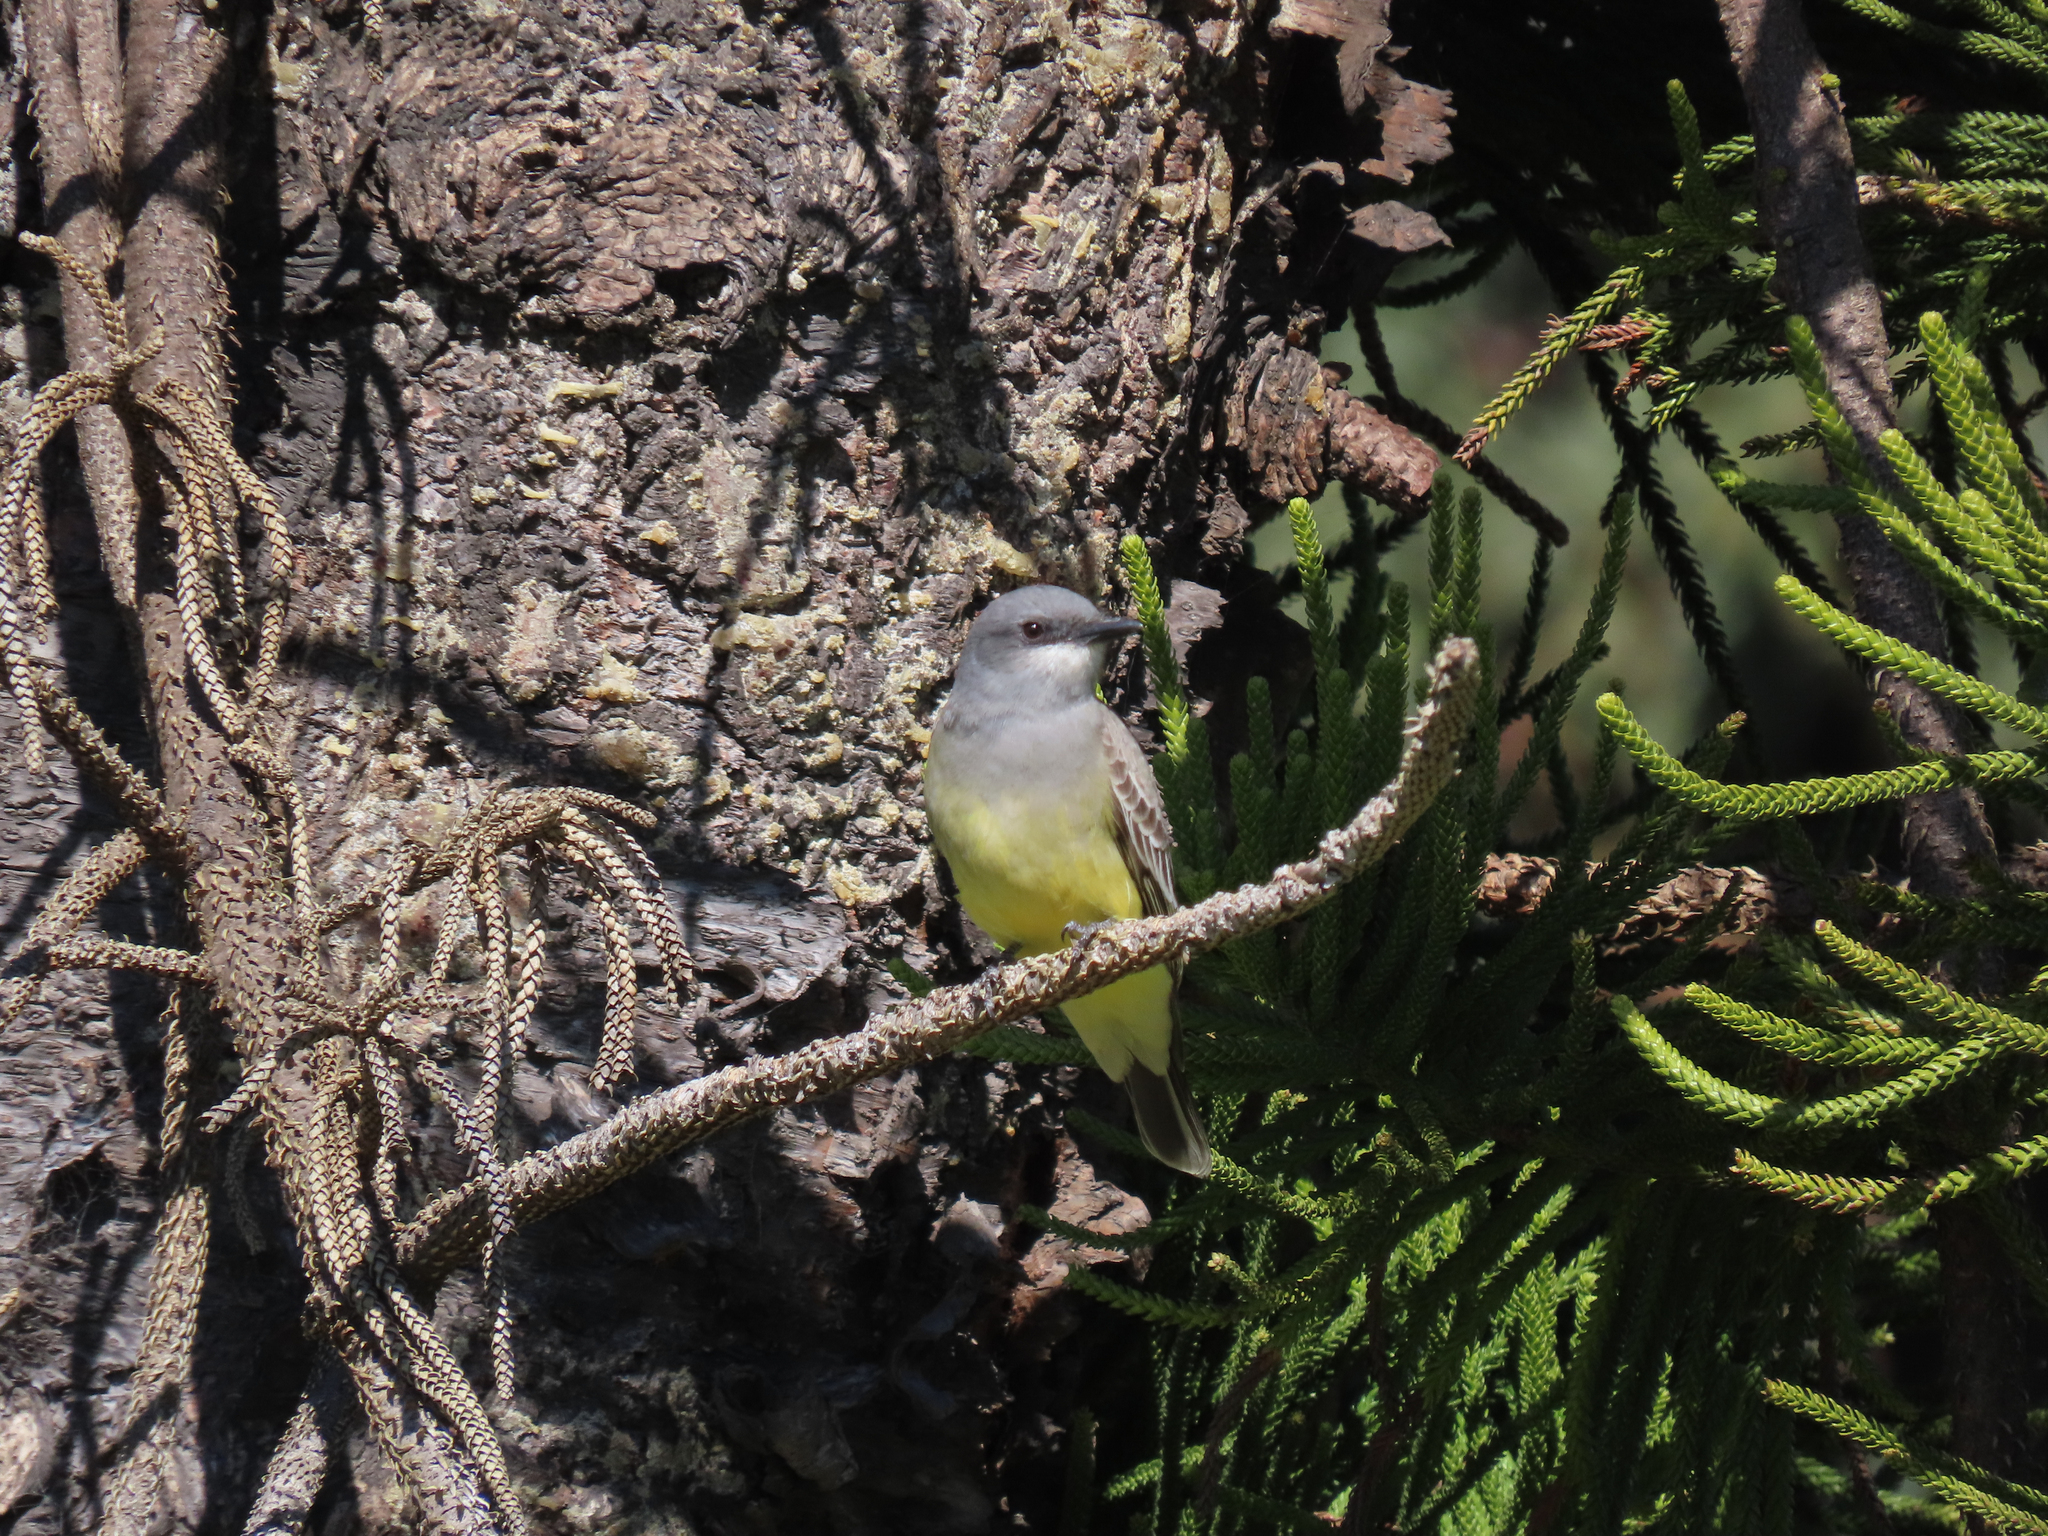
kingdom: Animalia
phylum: Chordata
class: Aves
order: Passeriformes
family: Tyrannidae
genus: Tyrannus
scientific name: Tyrannus vociferans
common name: Cassin's kingbird
